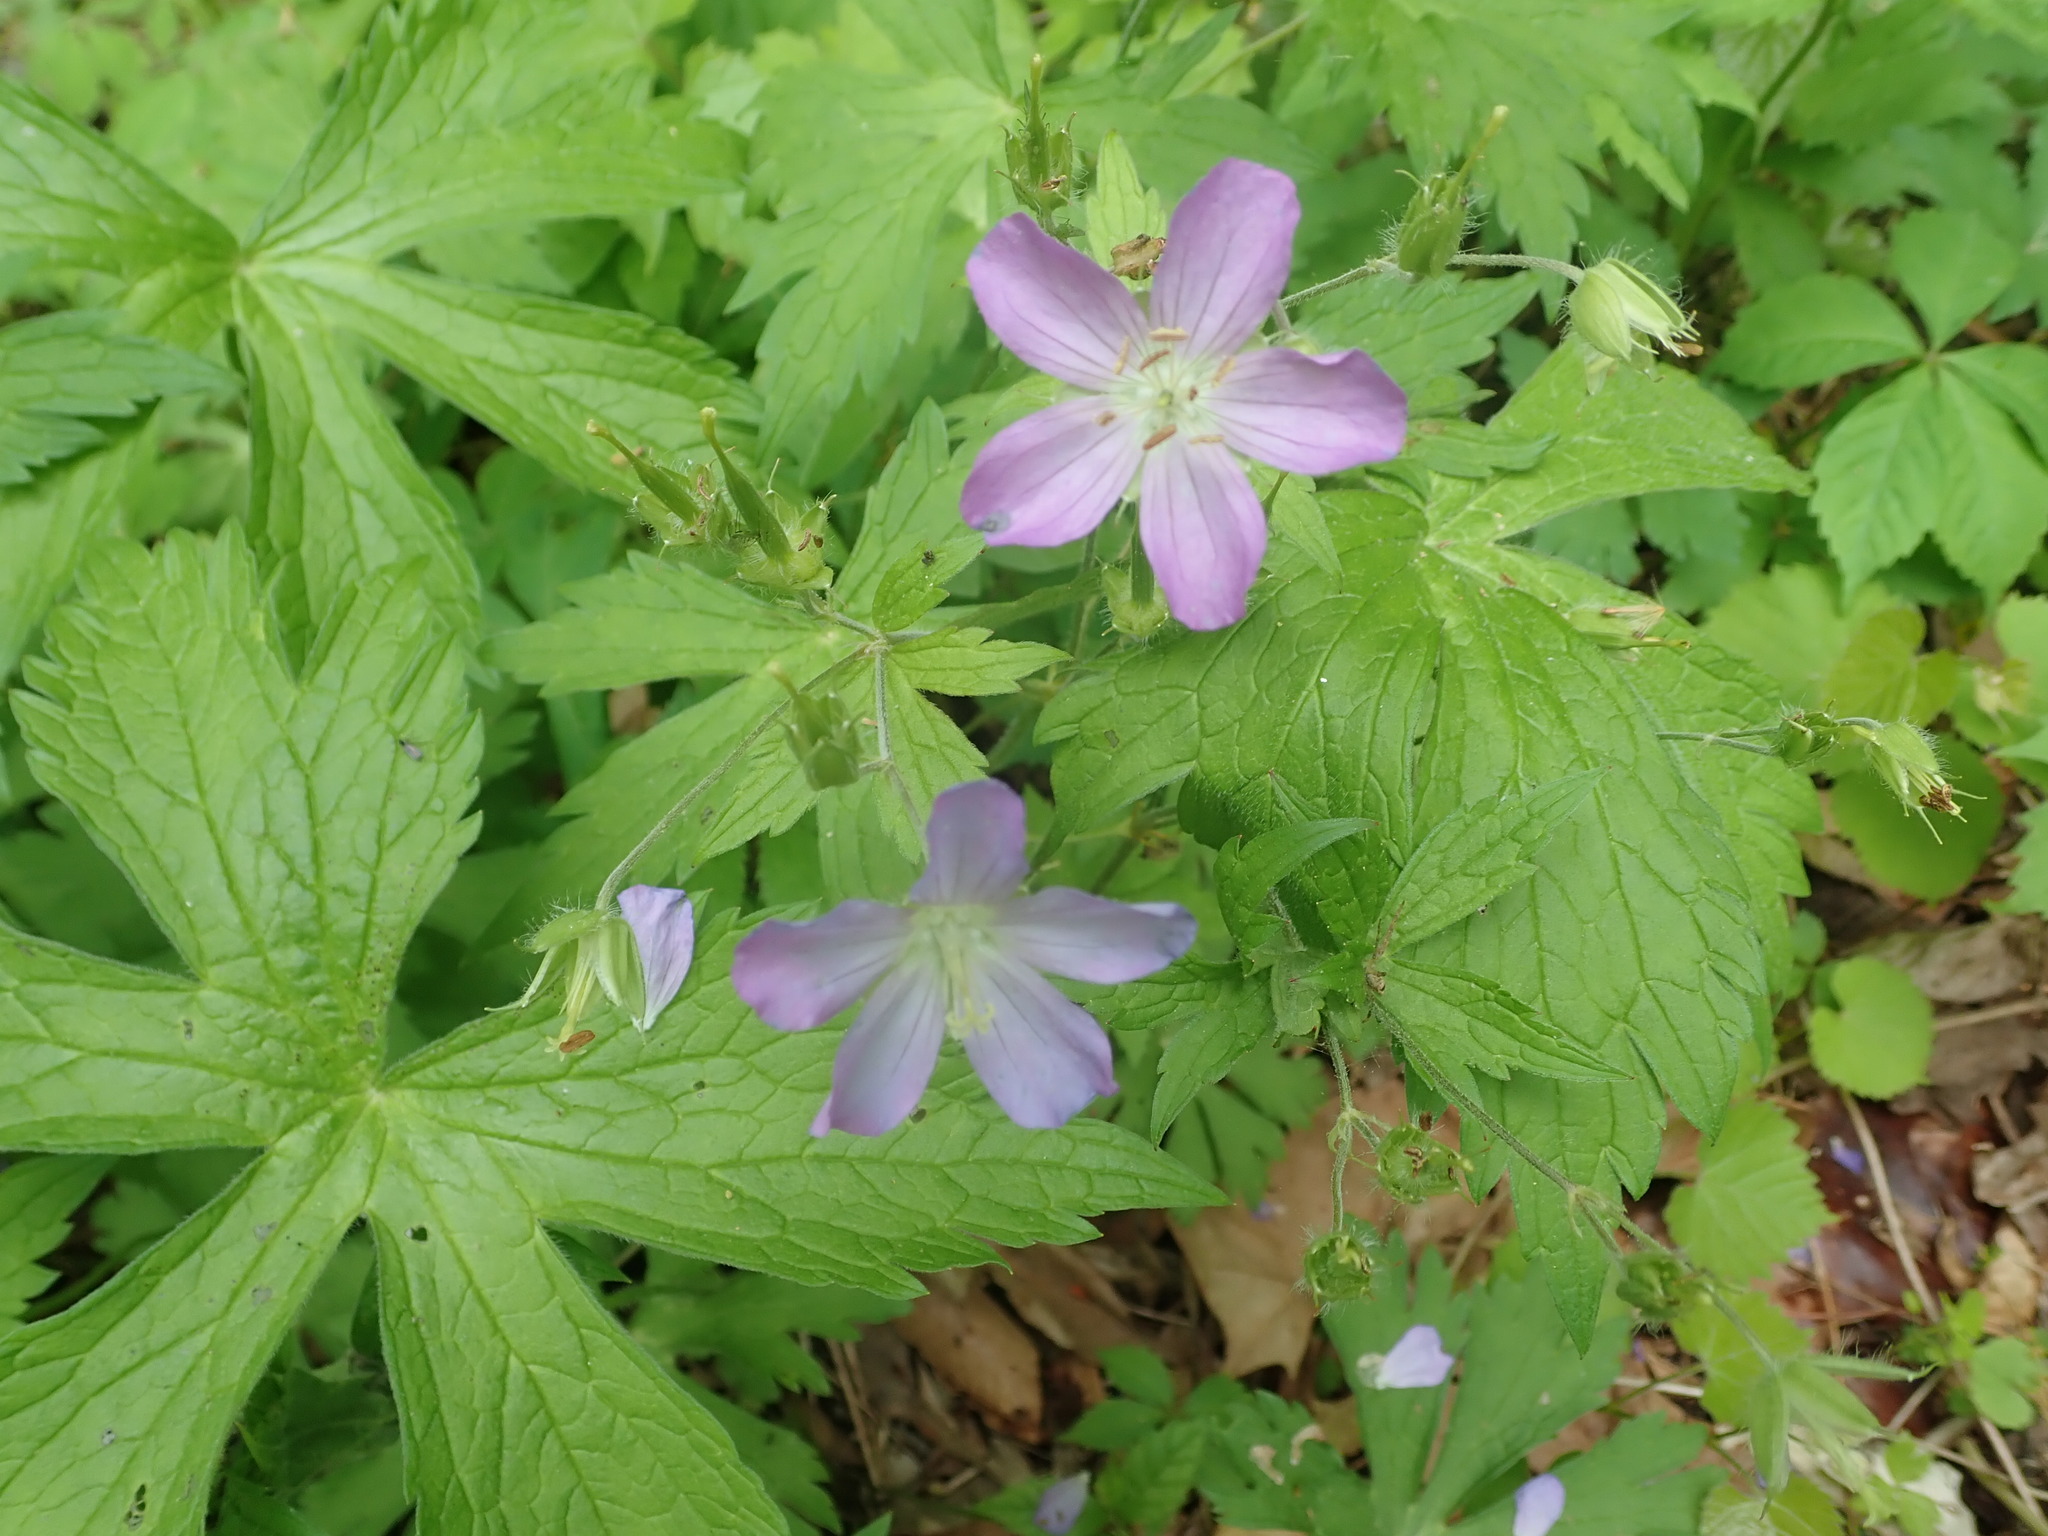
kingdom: Plantae
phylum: Tracheophyta
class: Magnoliopsida
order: Geraniales
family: Geraniaceae
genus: Geranium
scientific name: Geranium maculatum
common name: Spotted geranium
